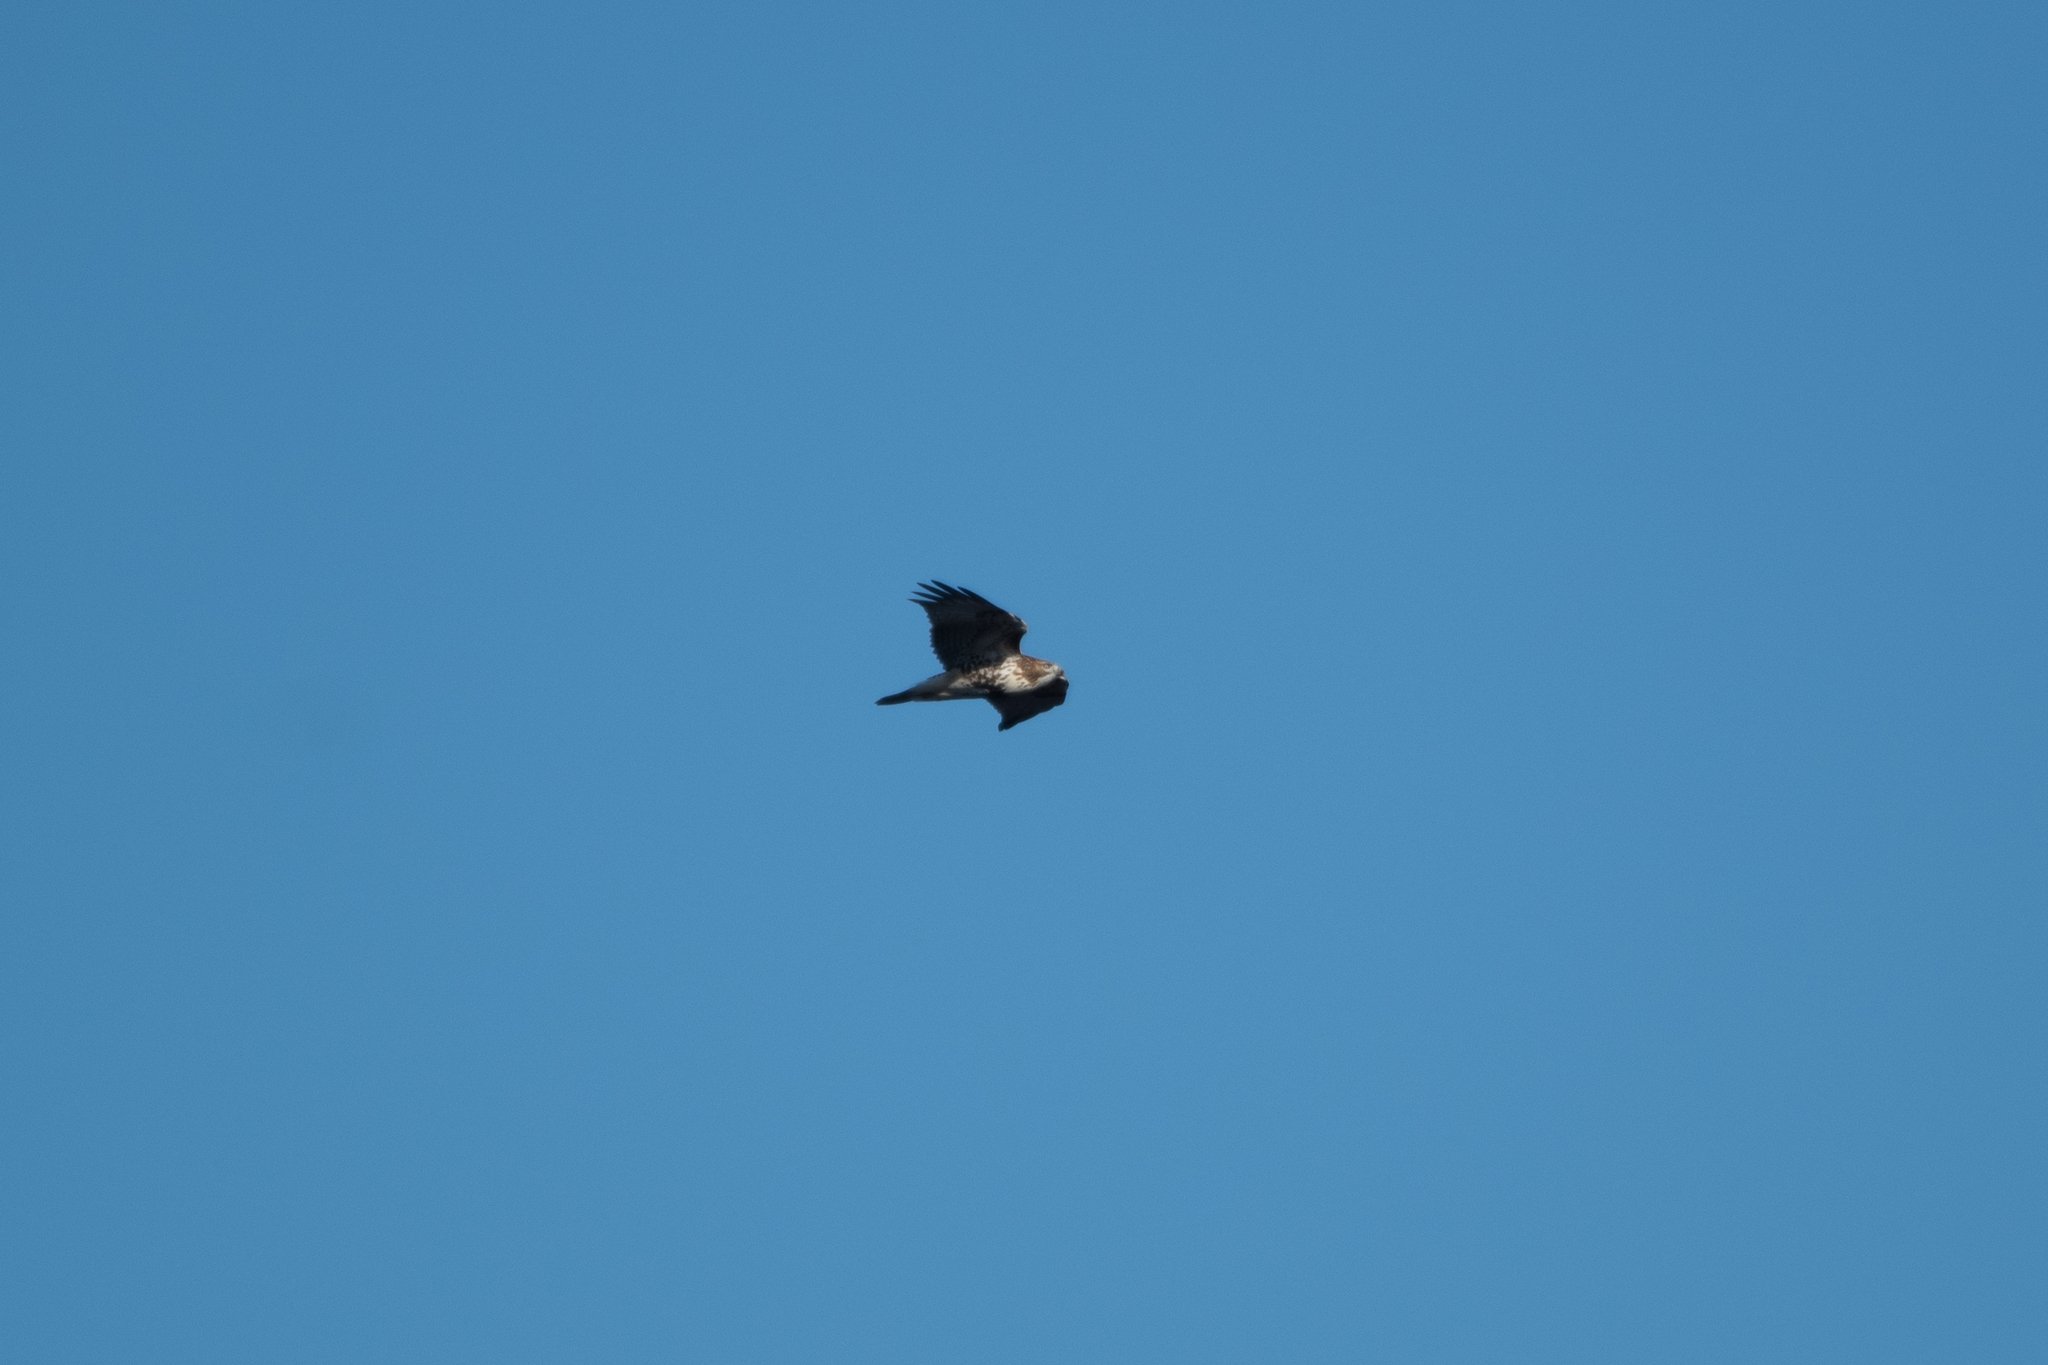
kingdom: Animalia
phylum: Chordata
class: Aves
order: Accipitriformes
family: Accipitridae
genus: Buteo
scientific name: Buteo jamaicensis
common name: Red-tailed hawk
